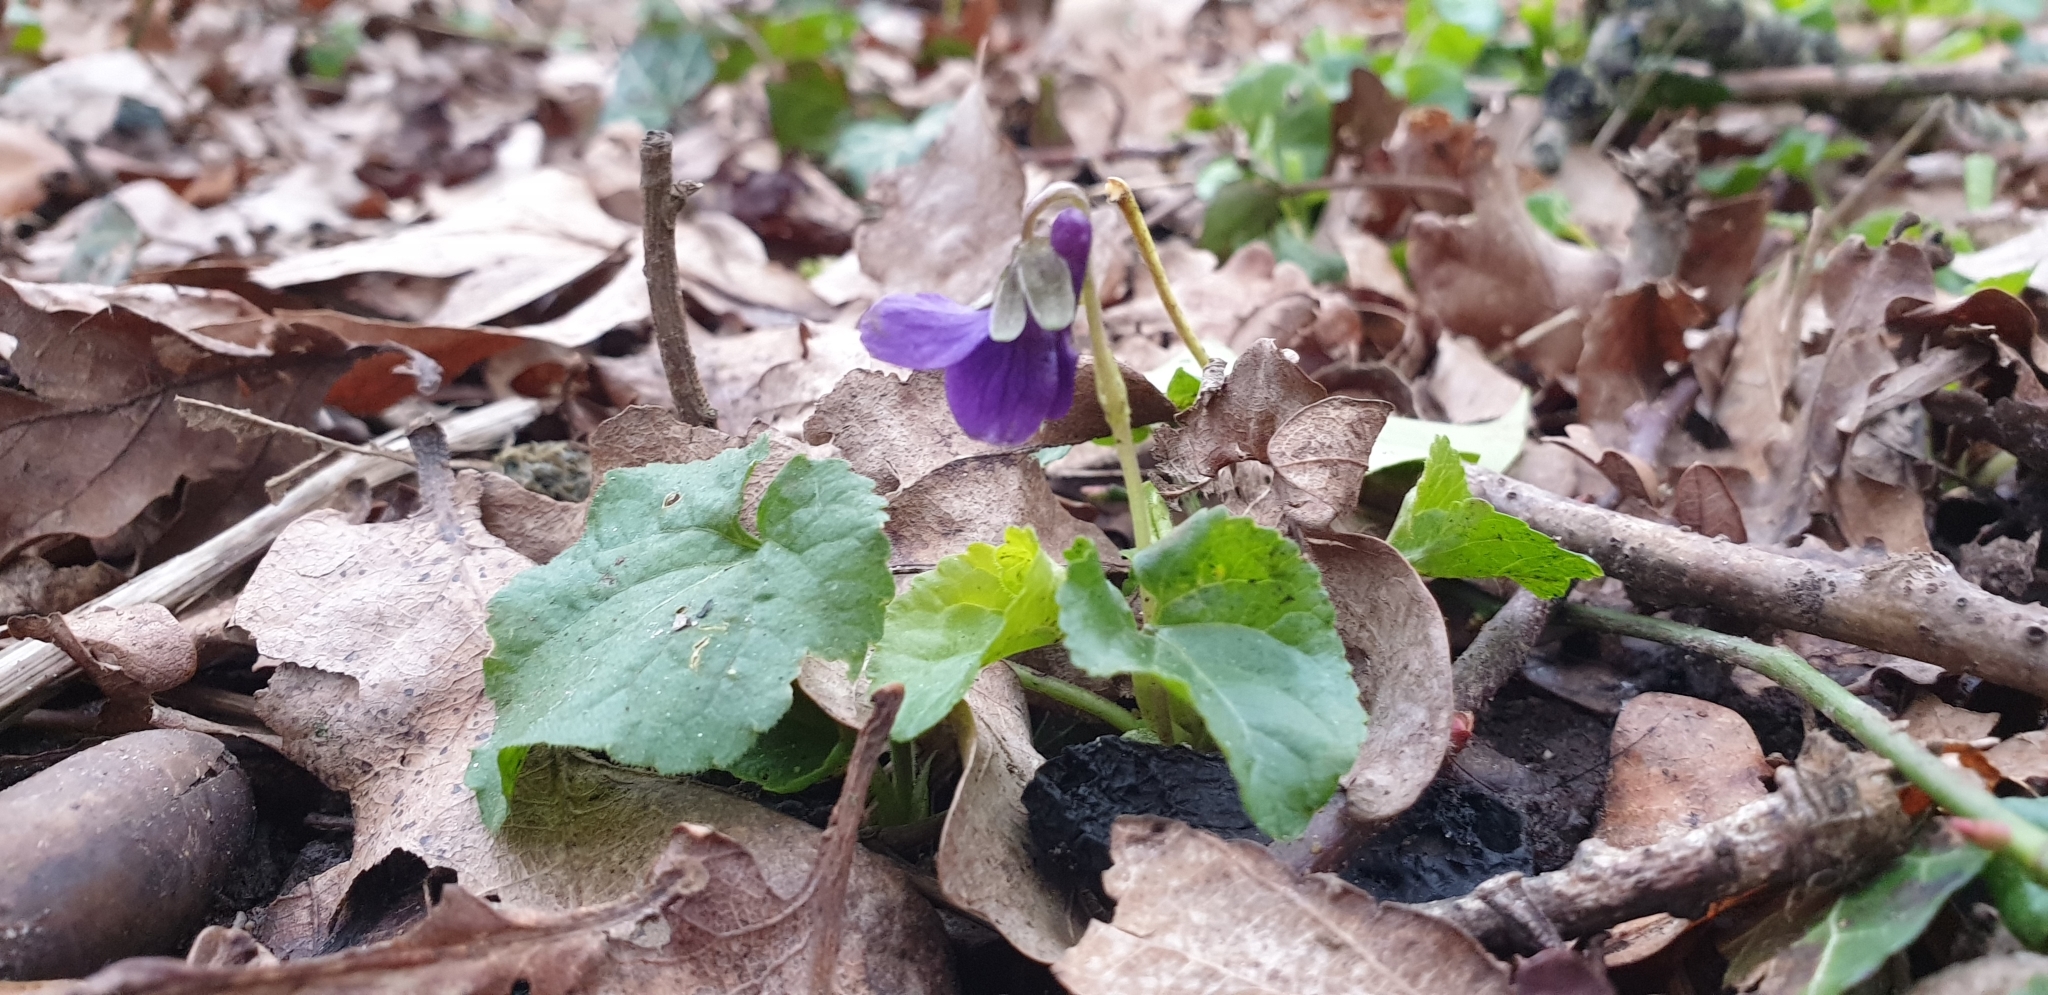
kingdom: Plantae
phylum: Tracheophyta
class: Magnoliopsida
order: Malpighiales
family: Violaceae
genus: Viola
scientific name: Viola odorata
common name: Sweet violet
